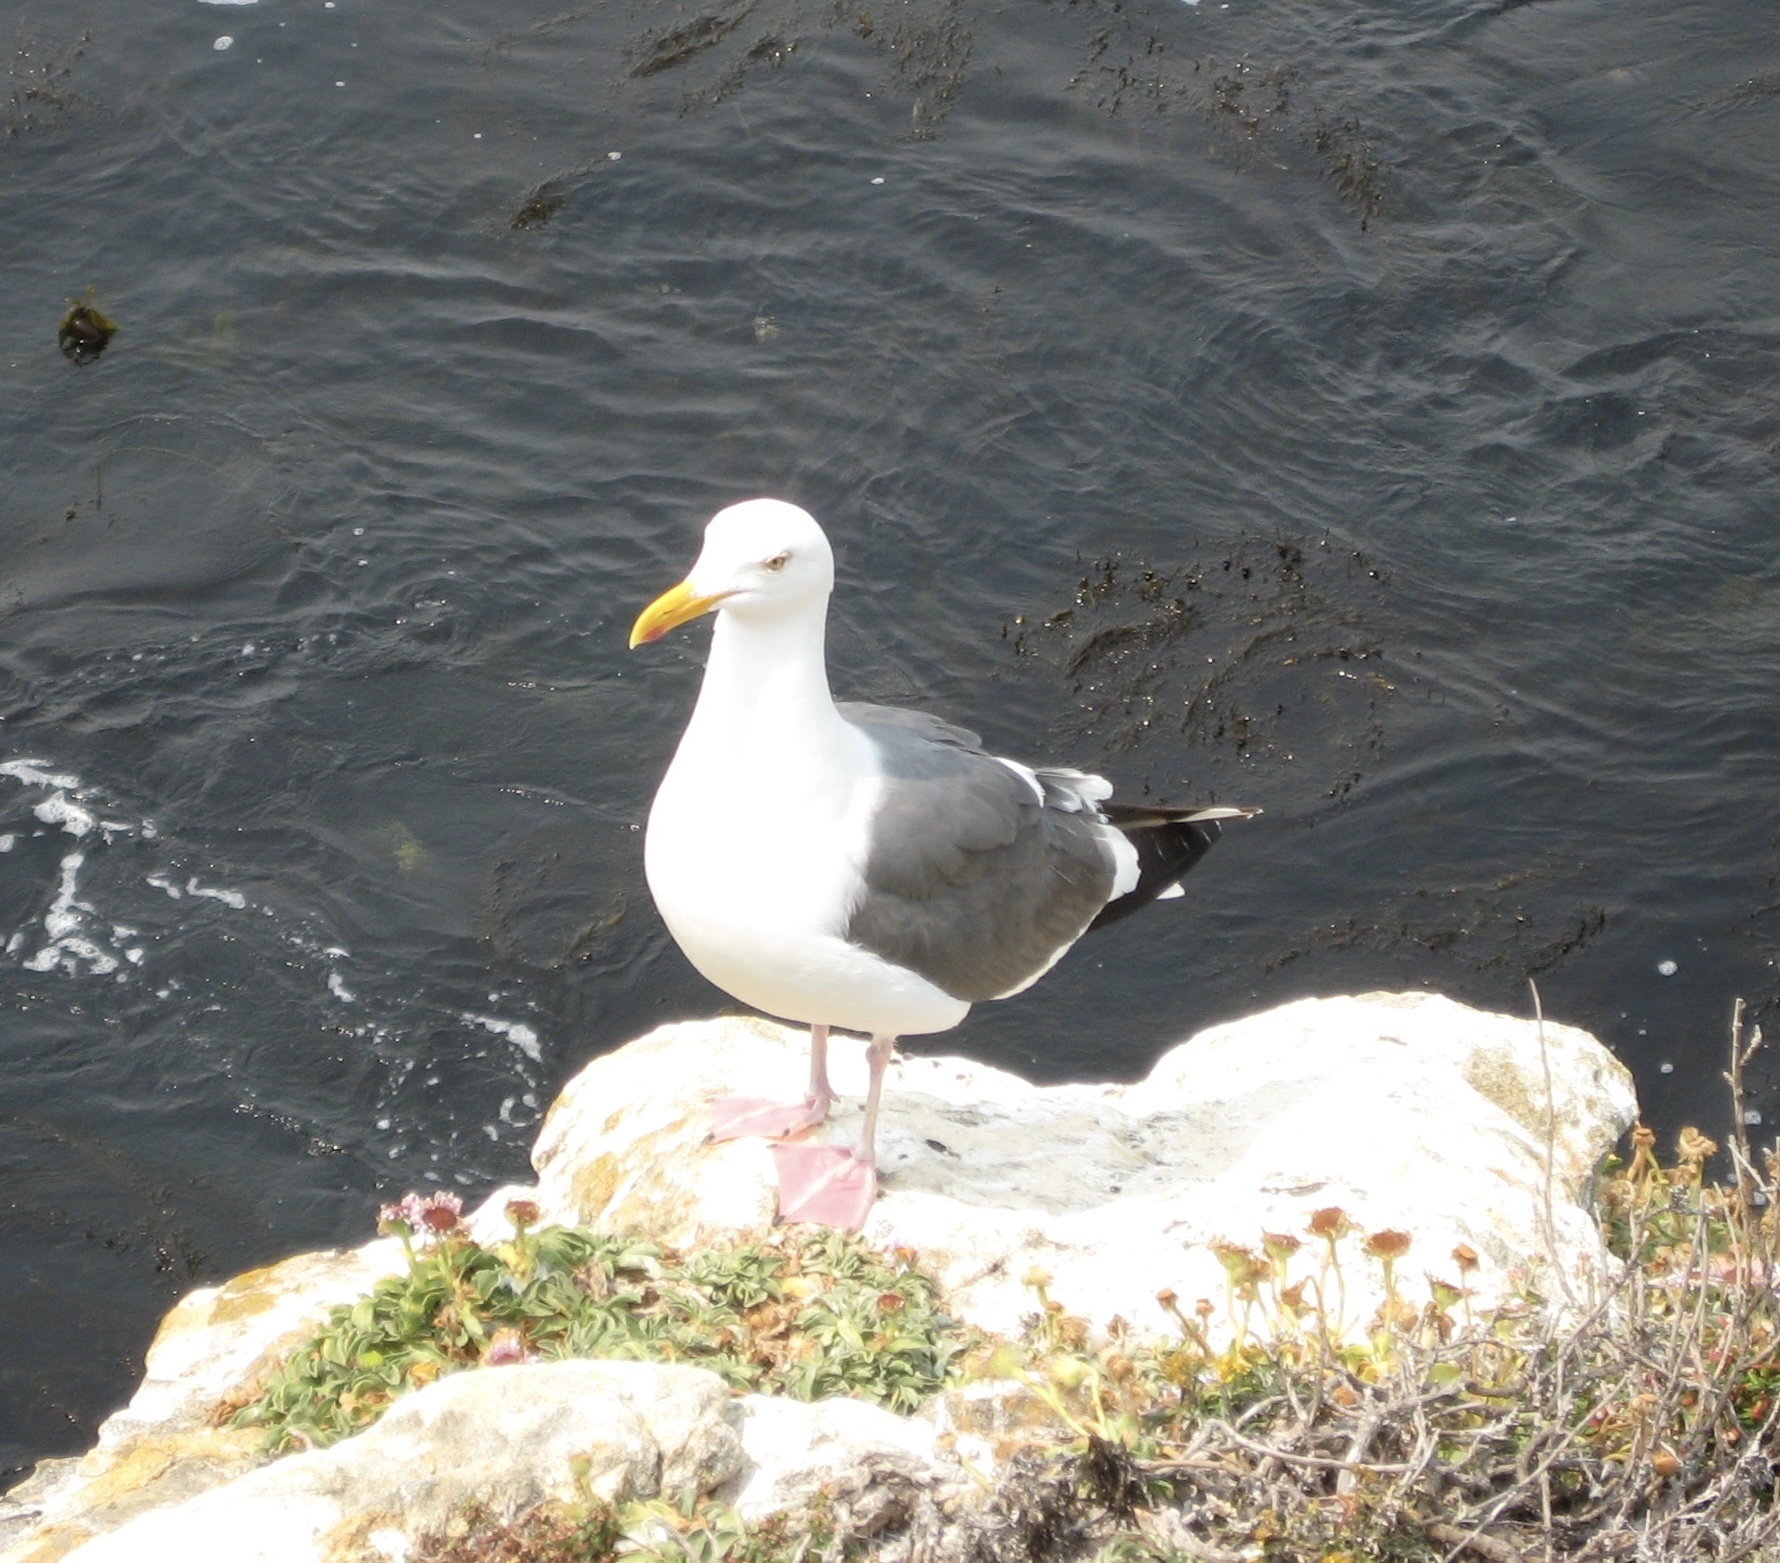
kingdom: Animalia
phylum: Chordata
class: Aves
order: Charadriiformes
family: Laridae
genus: Larus
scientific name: Larus occidentalis
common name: Western gull
